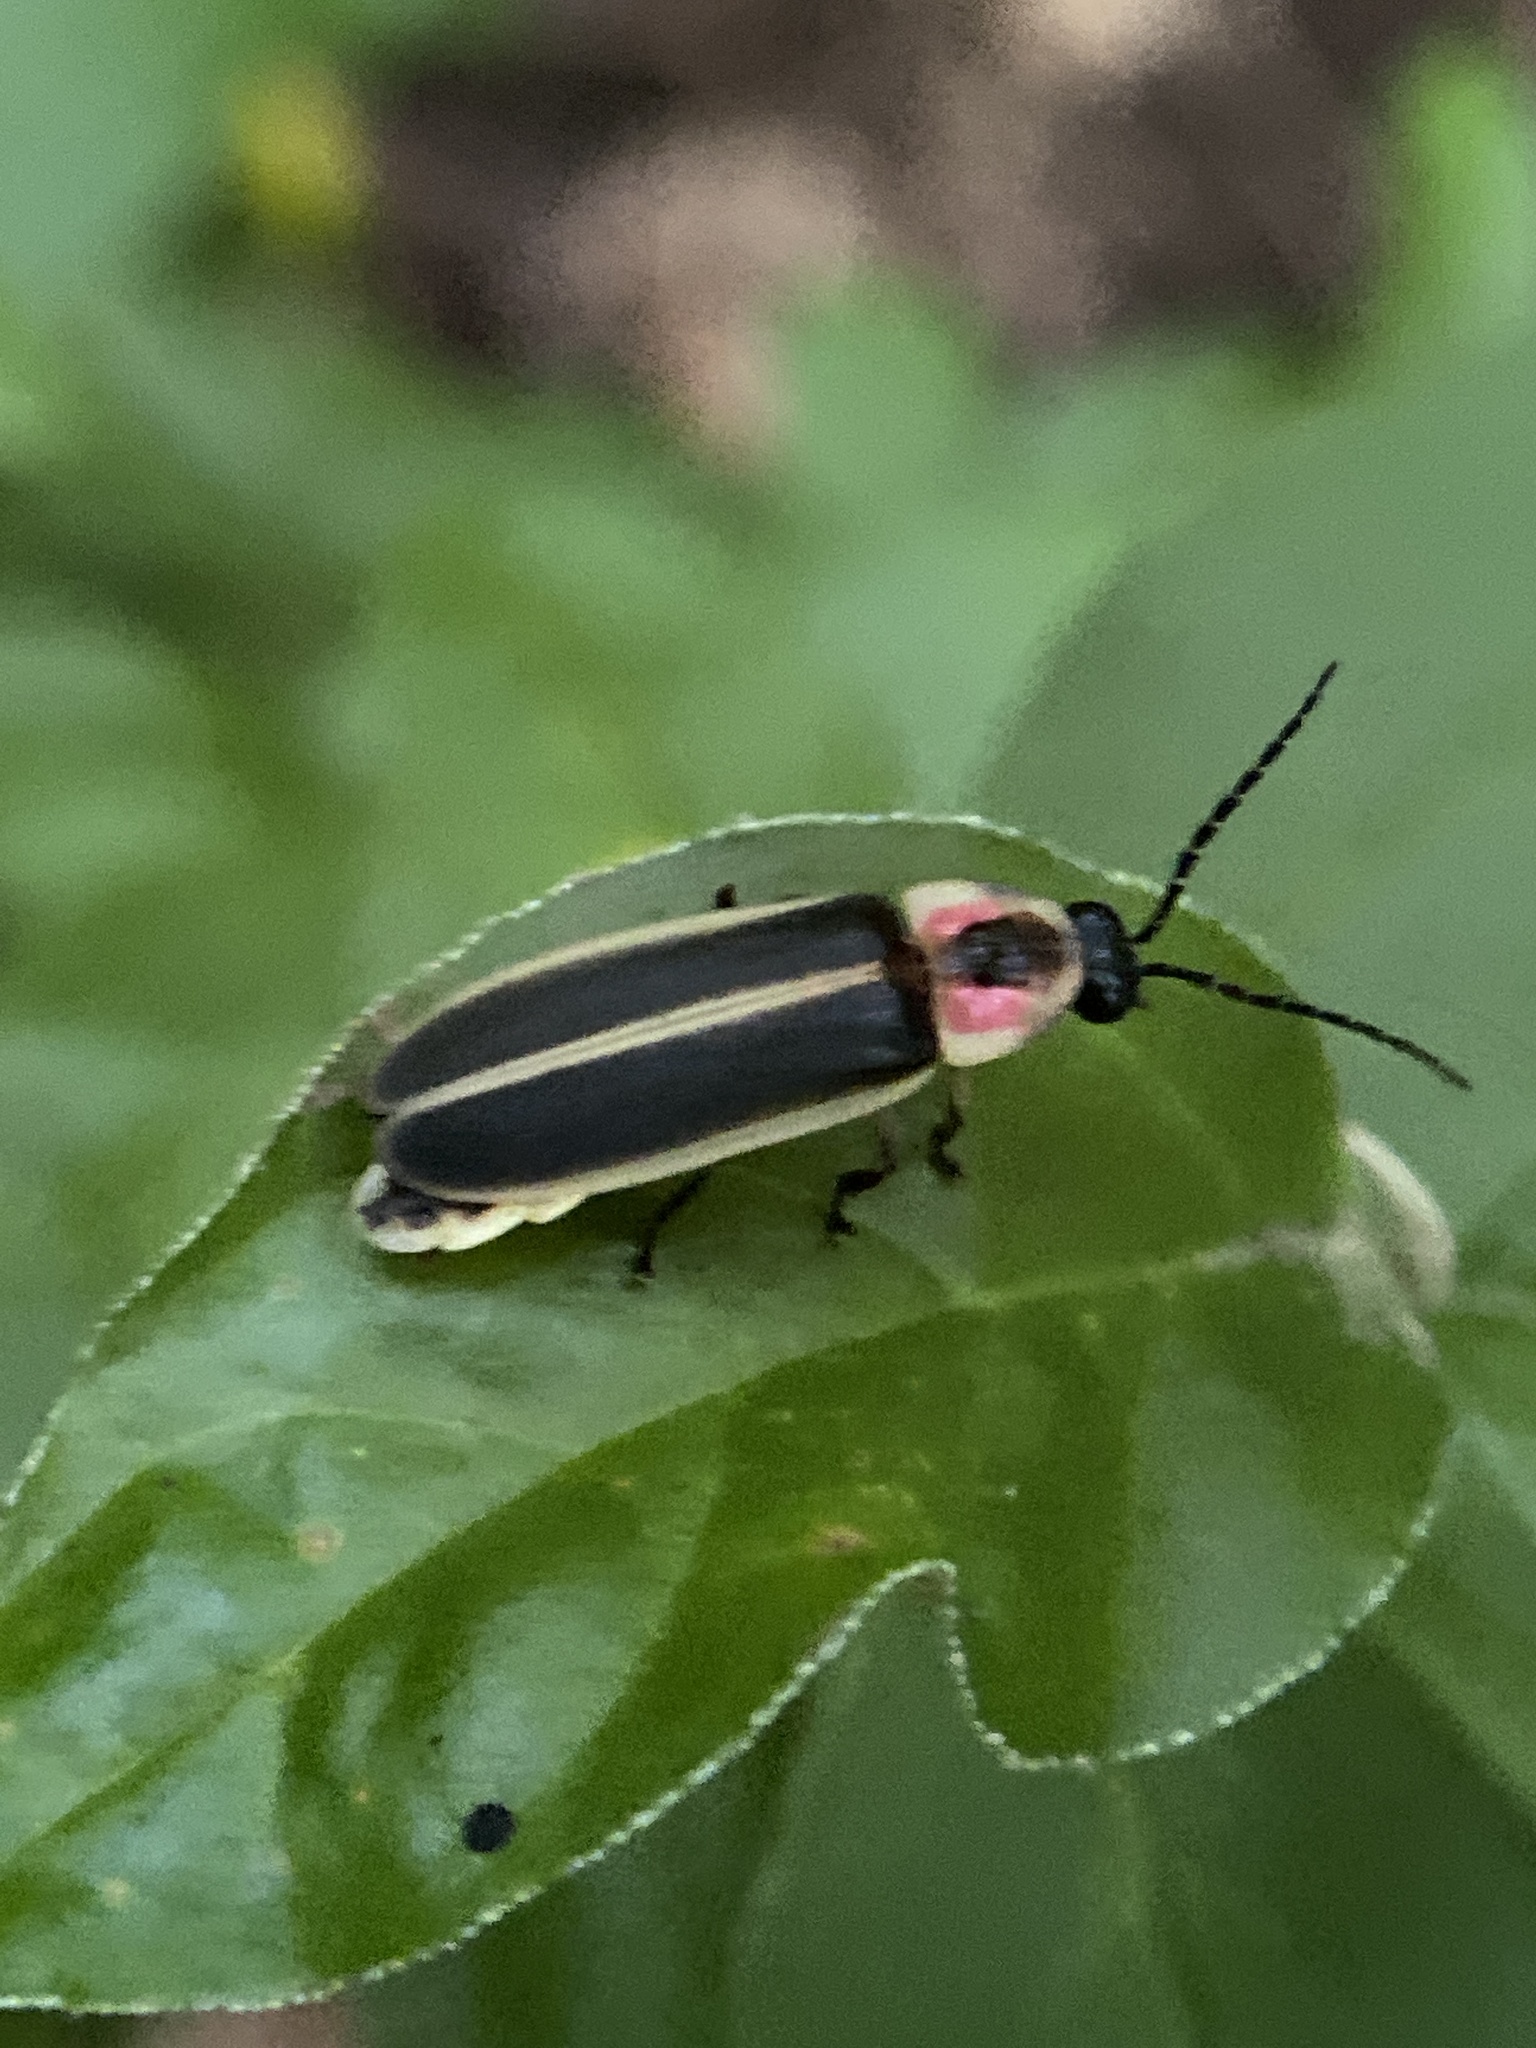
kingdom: Animalia
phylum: Arthropoda
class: Insecta
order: Coleoptera
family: Lampyridae
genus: Photinus
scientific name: Photinus pyralis
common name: Big dipper firefly
